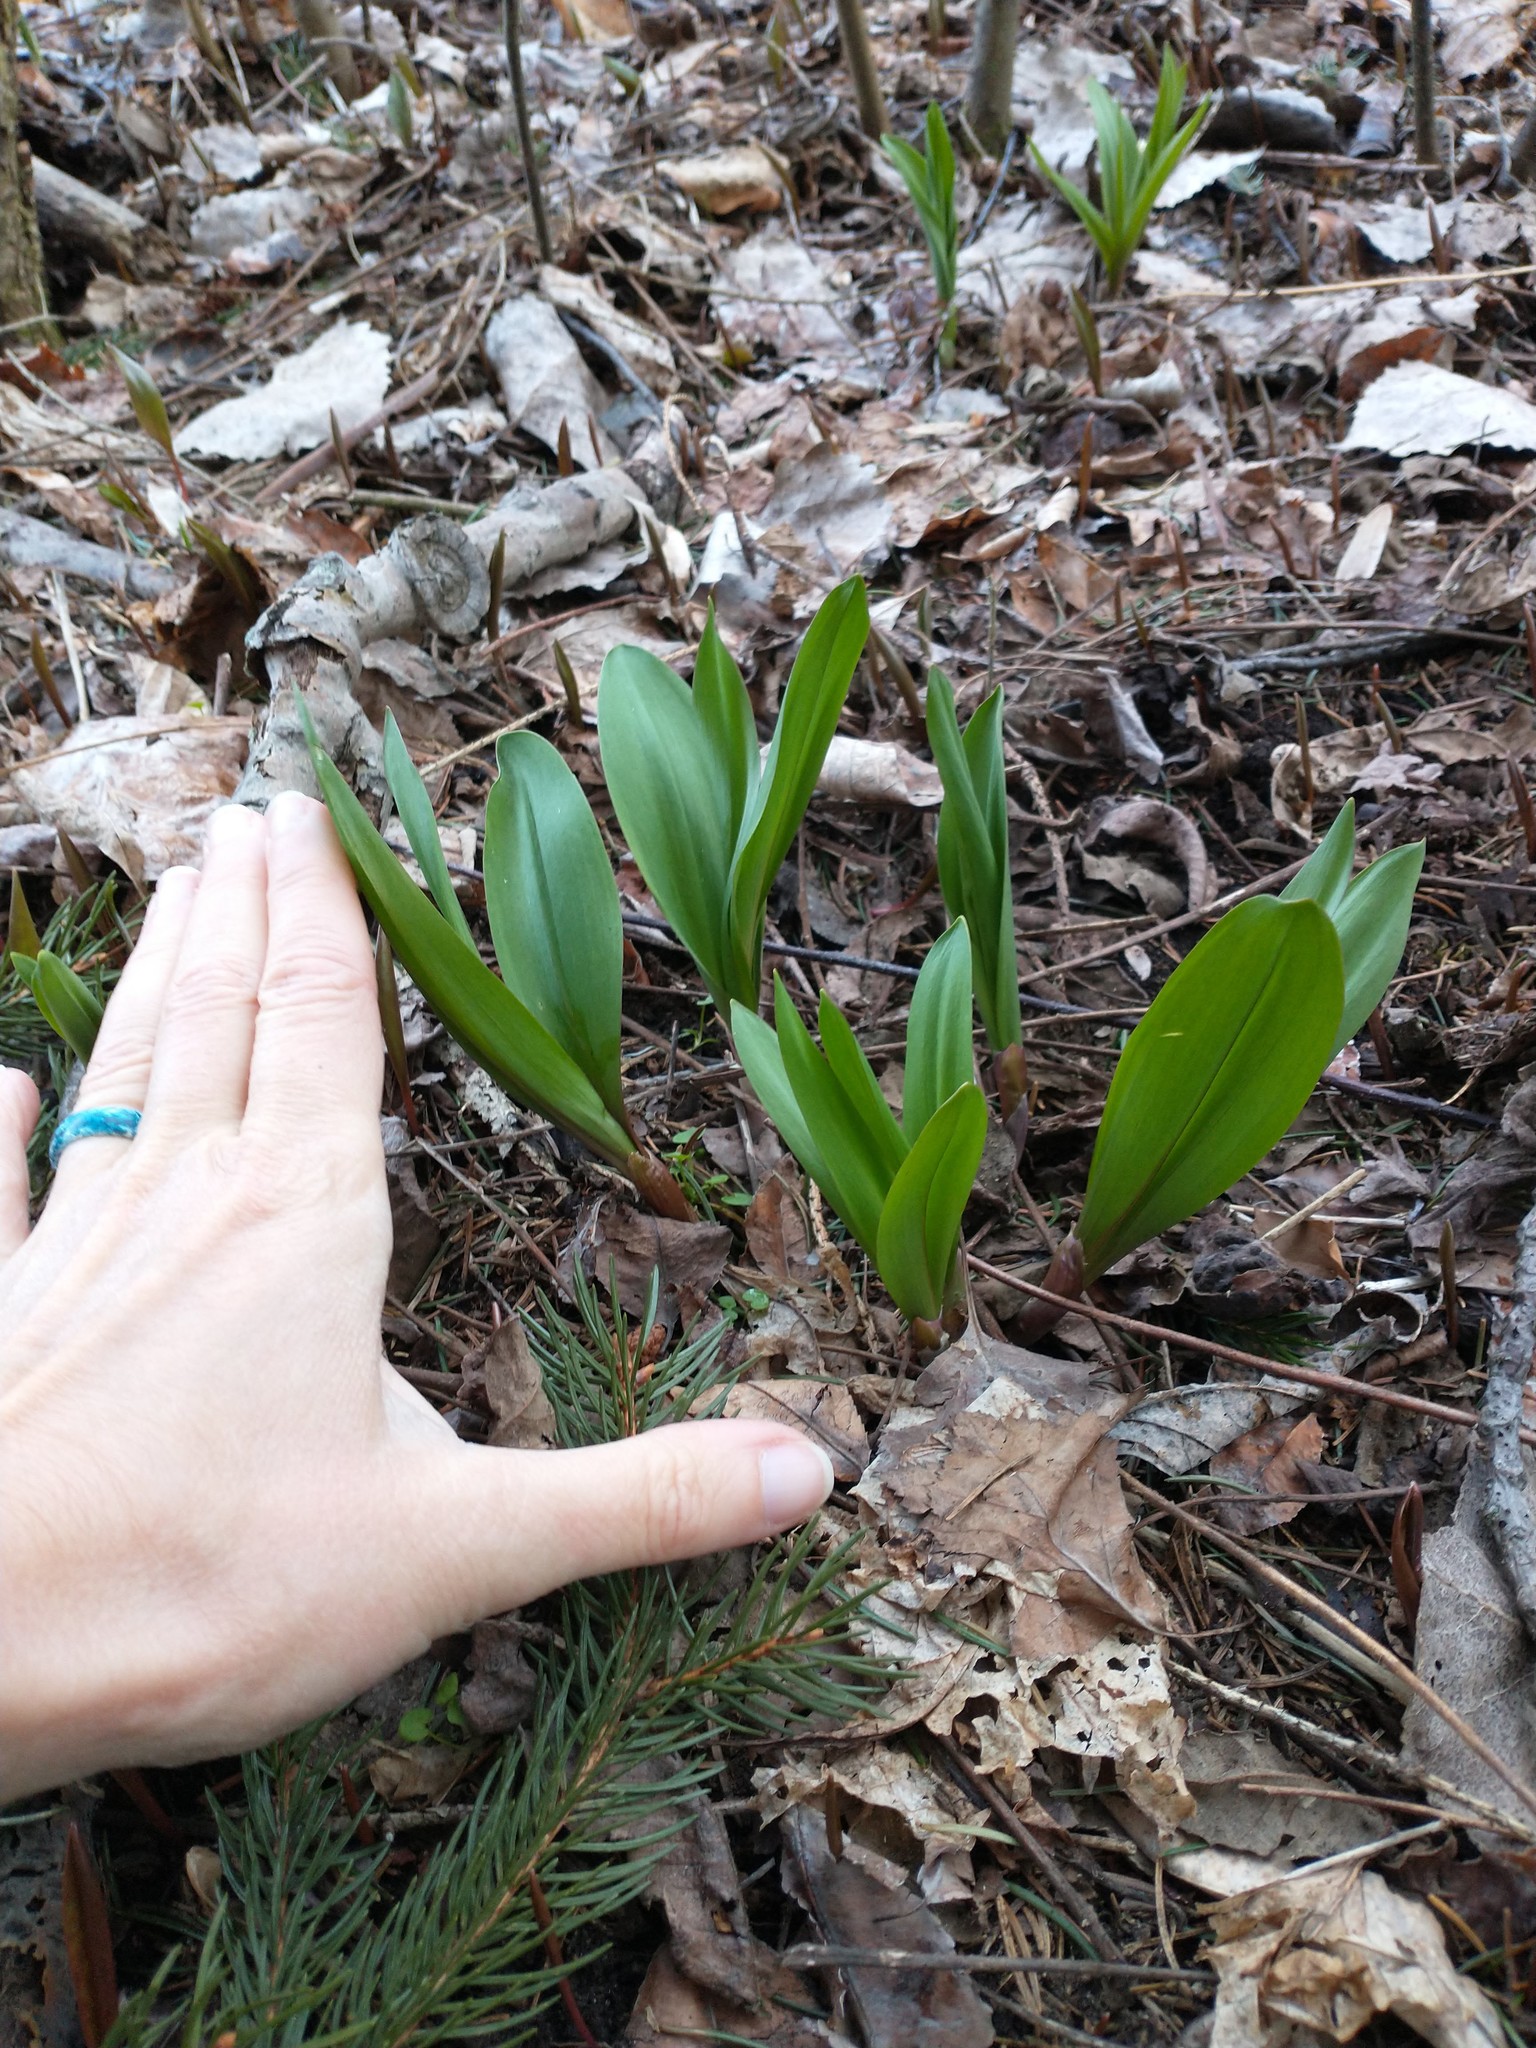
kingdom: Plantae
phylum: Tracheophyta
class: Liliopsida
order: Asparagales
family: Amaryllidaceae
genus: Allium
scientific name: Allium tricoccum
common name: Ramp
